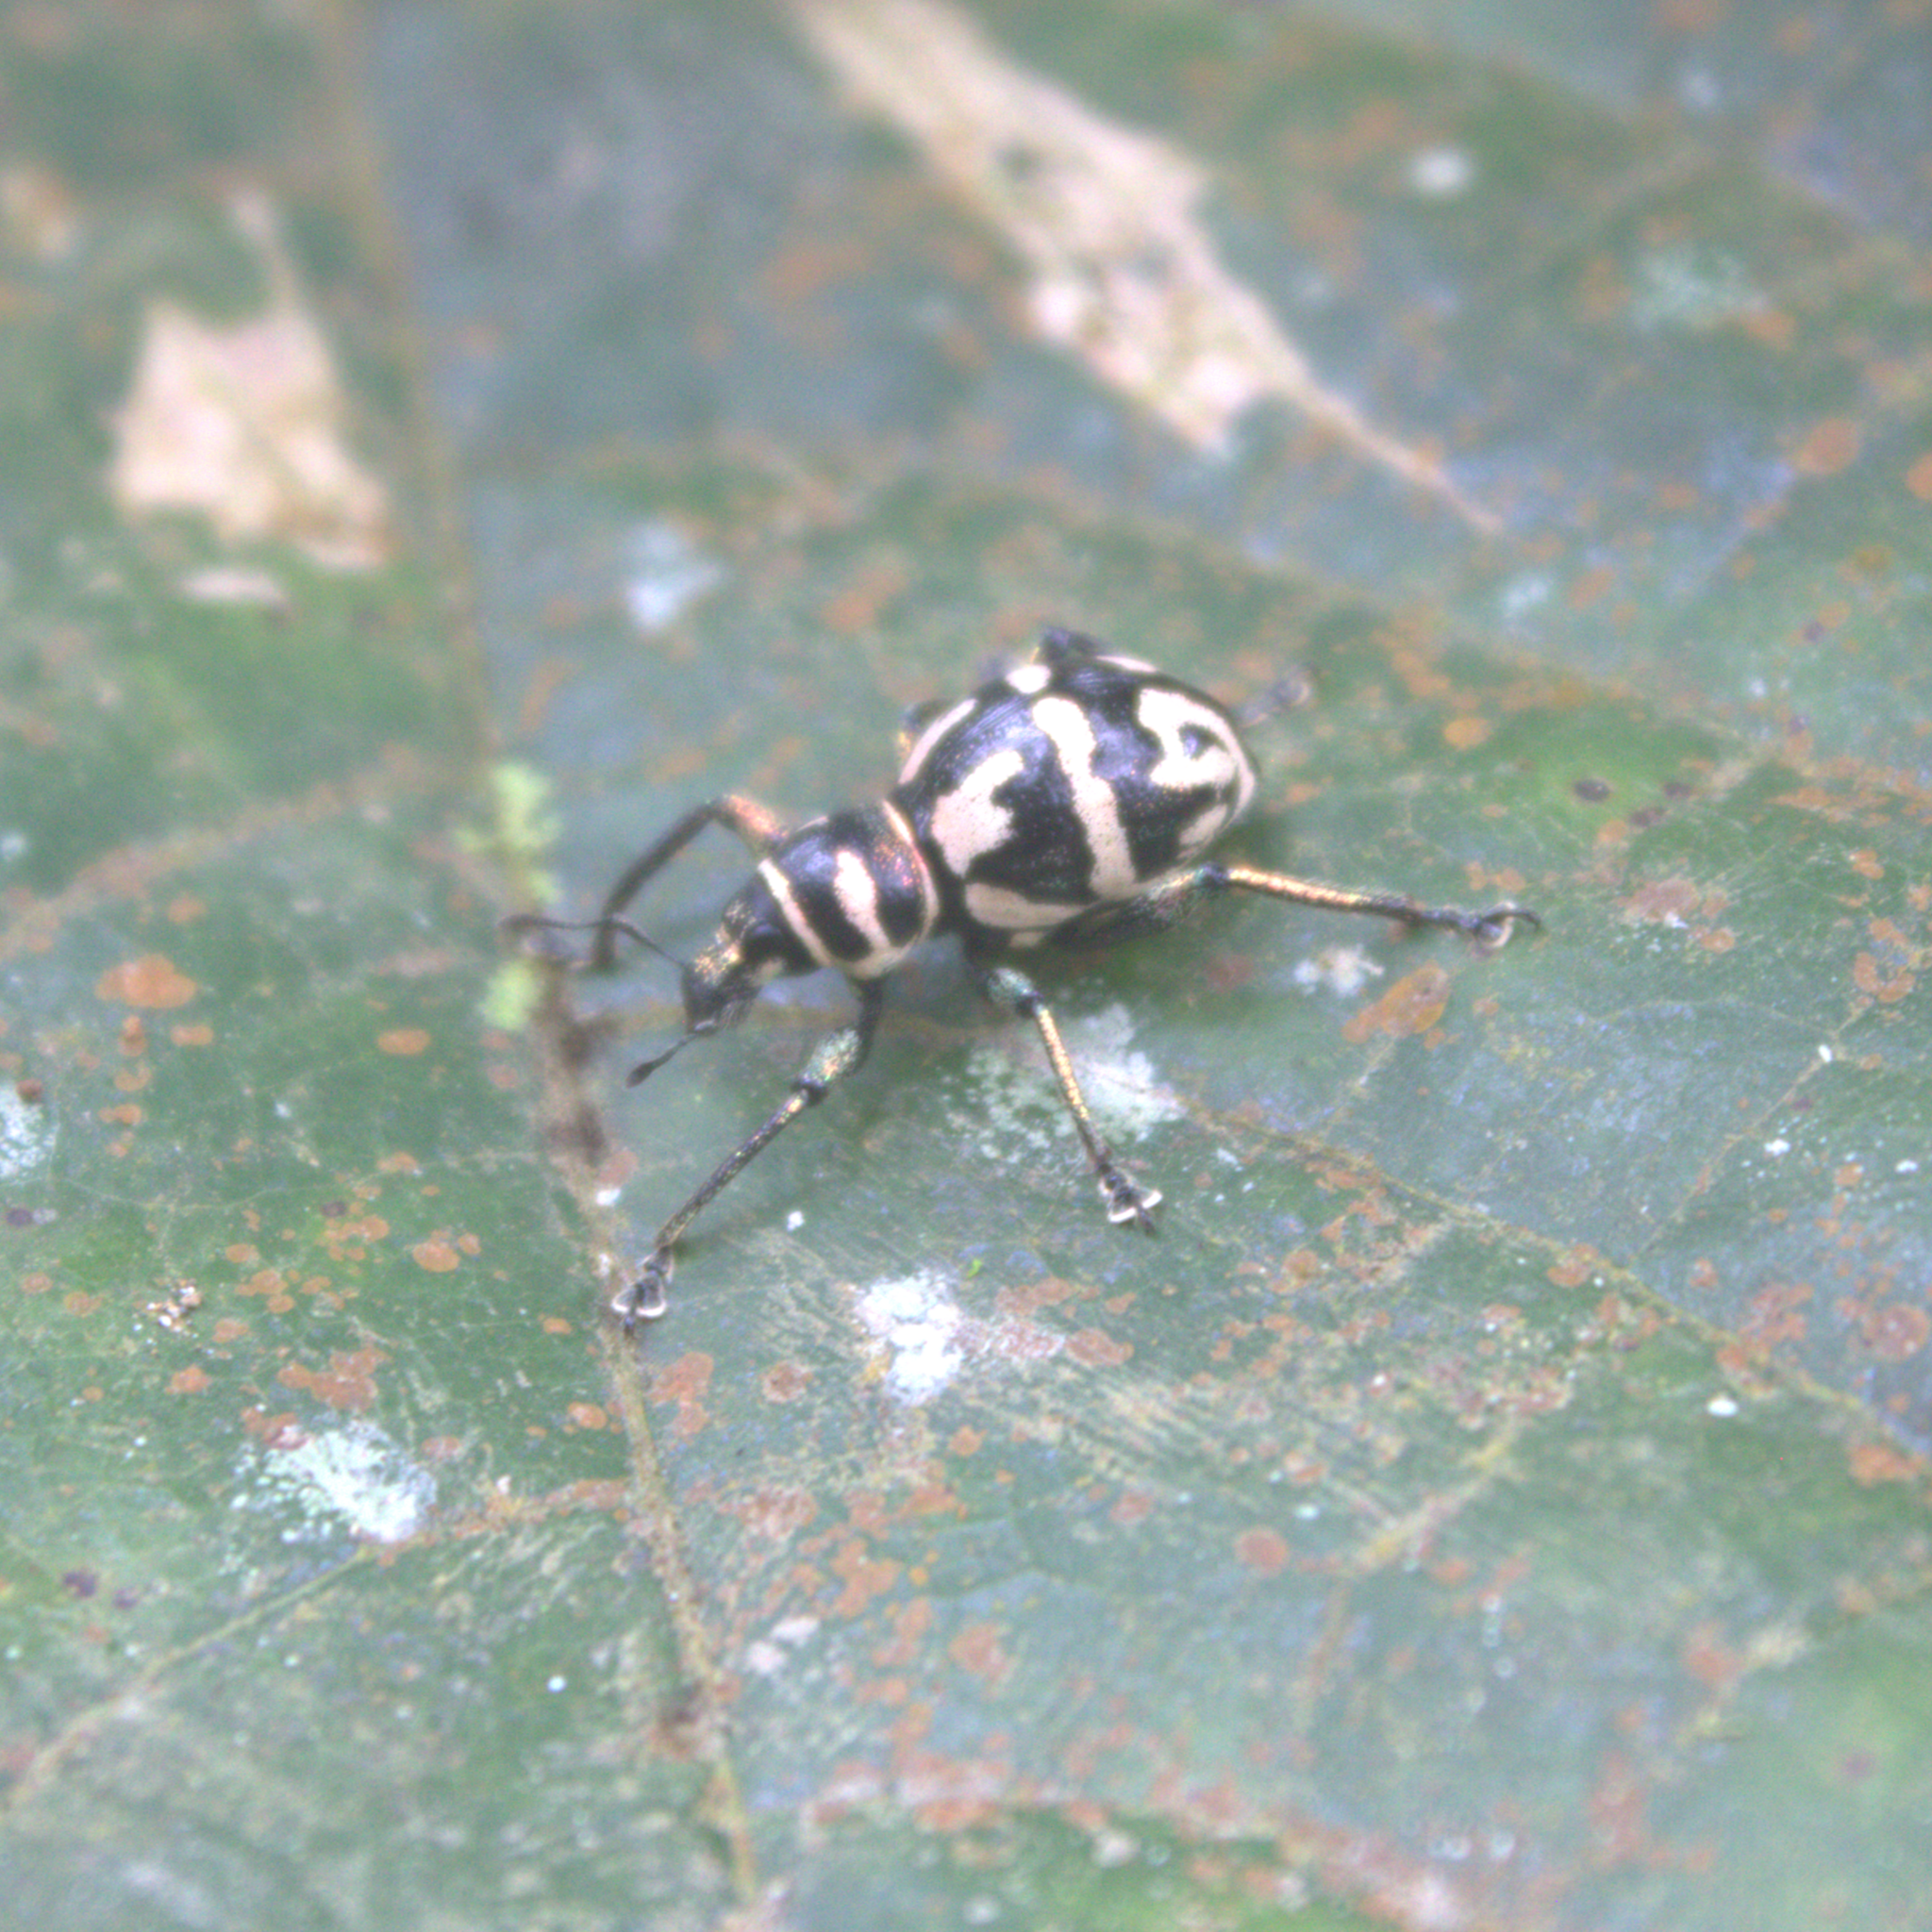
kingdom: Animalia
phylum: Arthropoda
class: Insecta
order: Coleoptera
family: Curculionidae
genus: Metapocyrtus
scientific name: Metapocyrtus davaoensis
